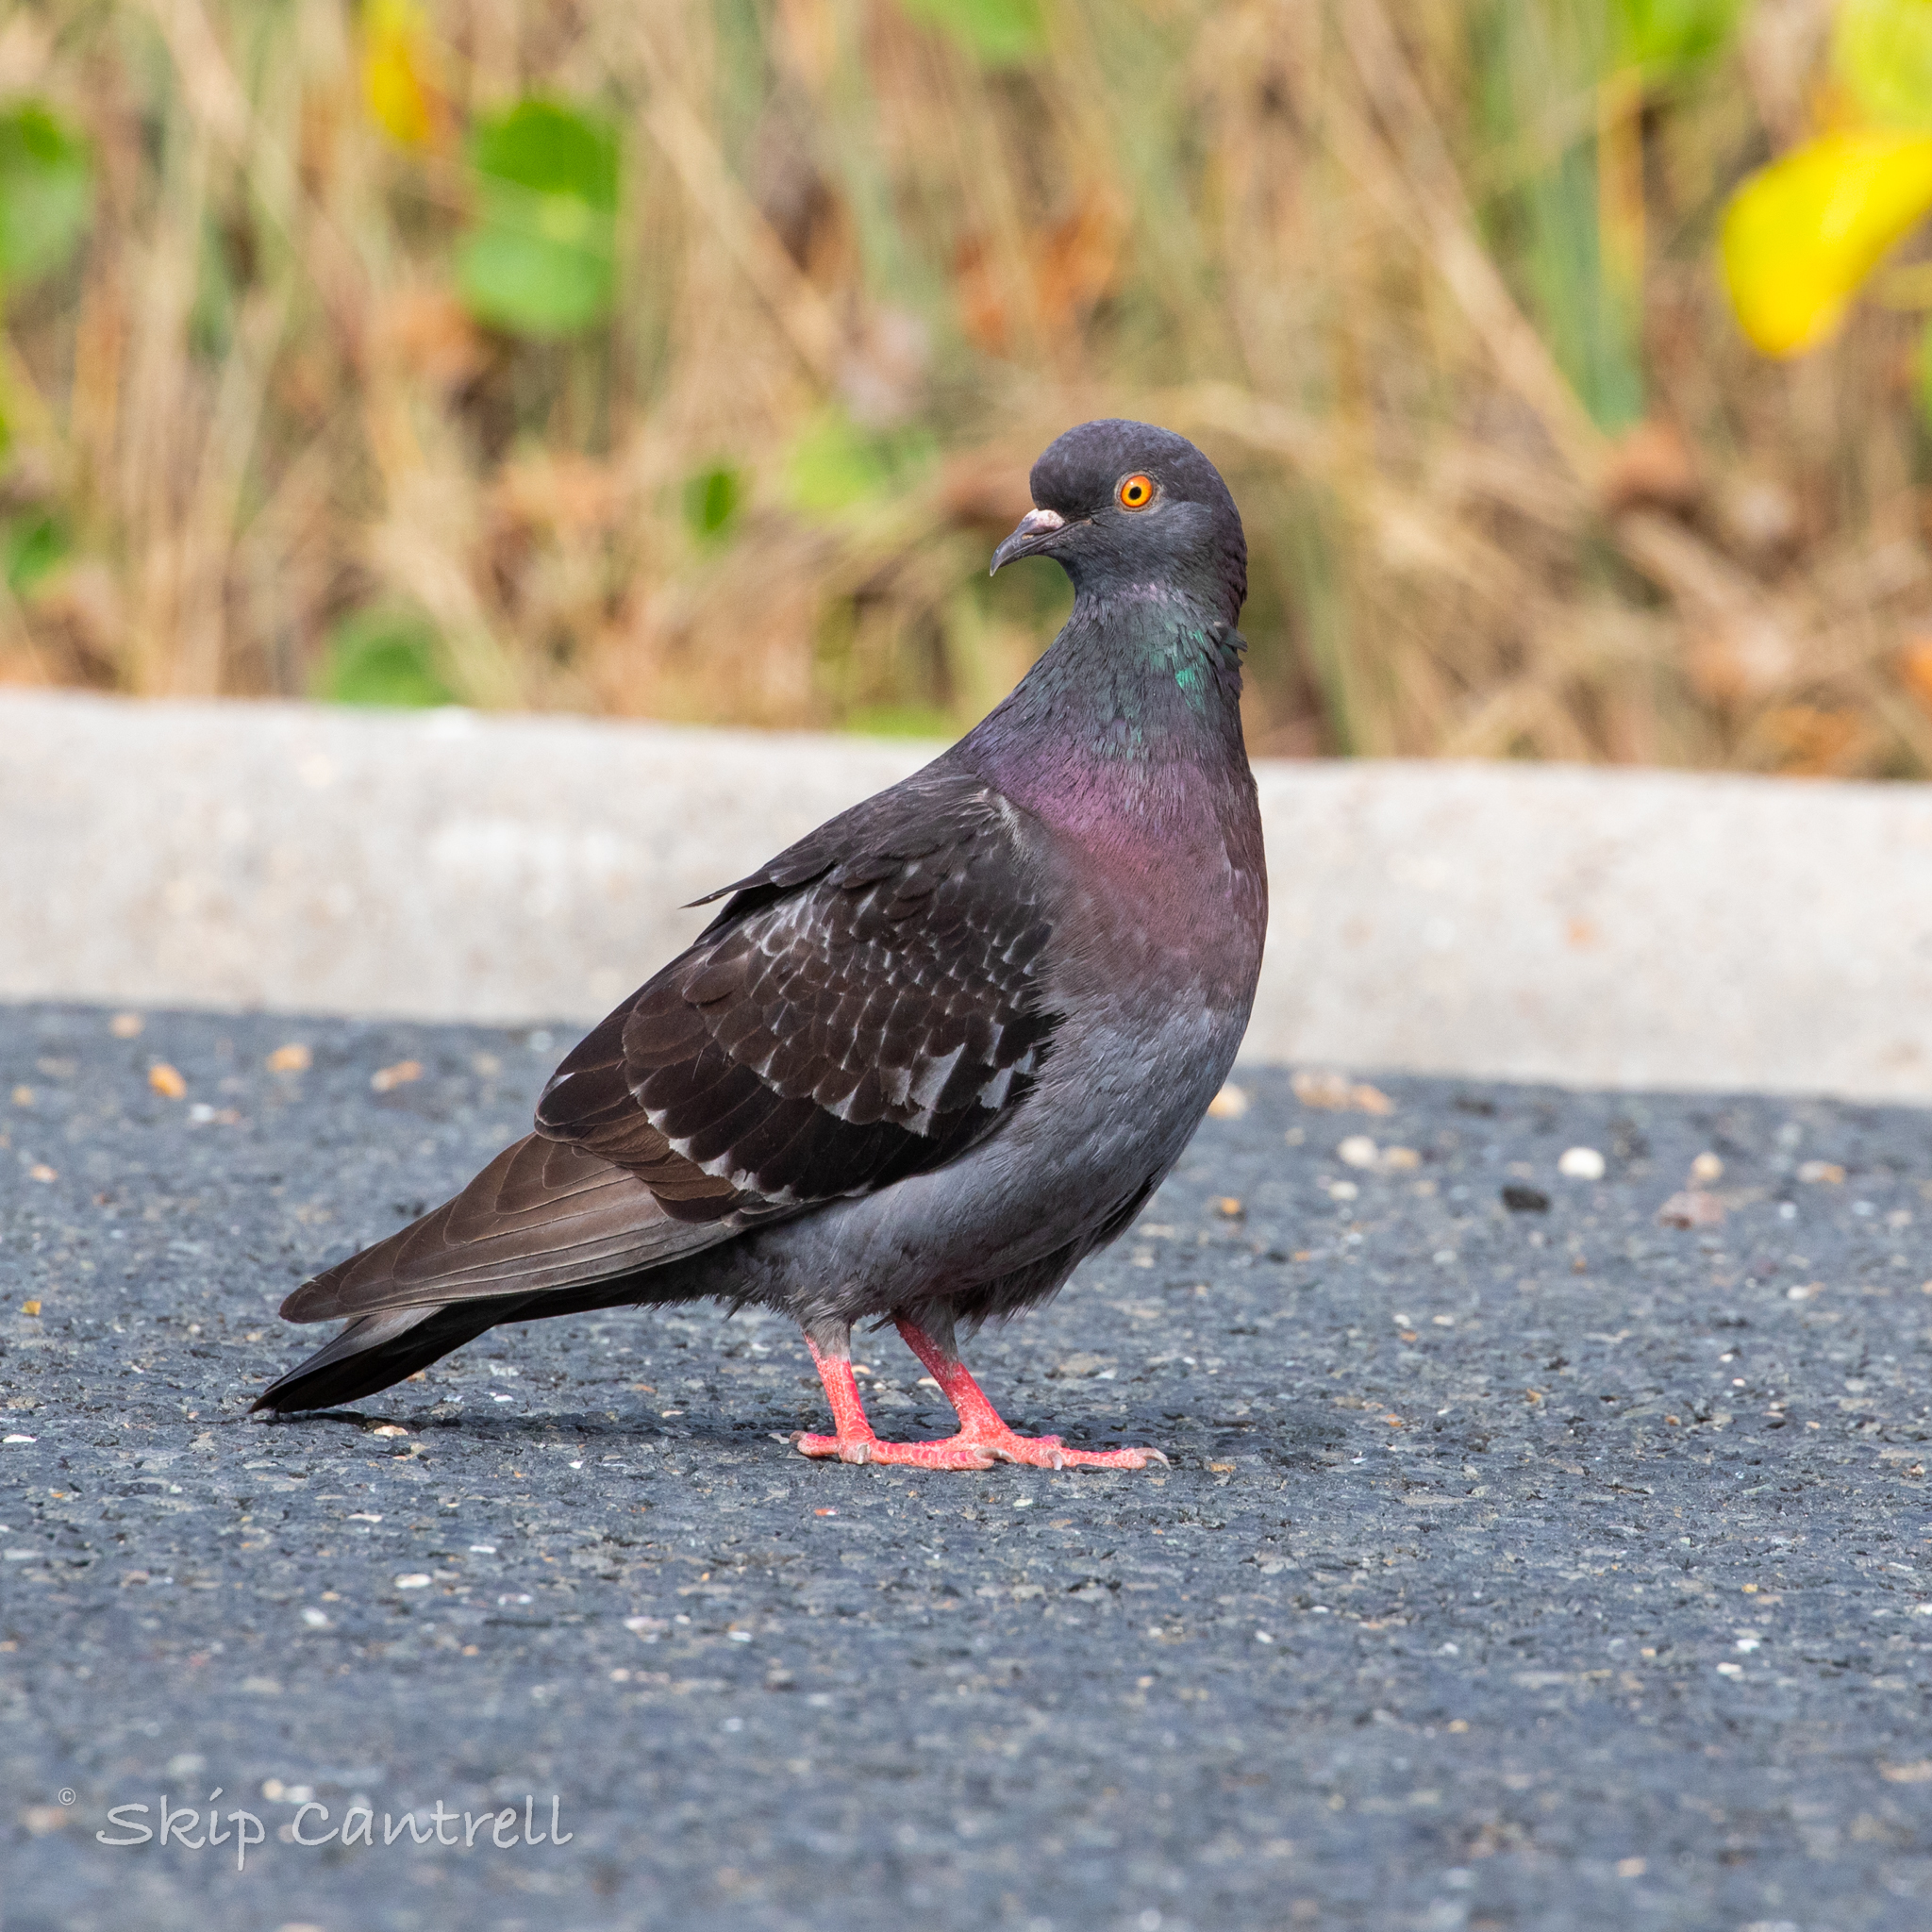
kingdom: Animalia
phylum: Chordata
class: Aves
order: Columbiformes
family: Columbidae
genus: Columba
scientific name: Columba livia
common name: Rock pigeon
